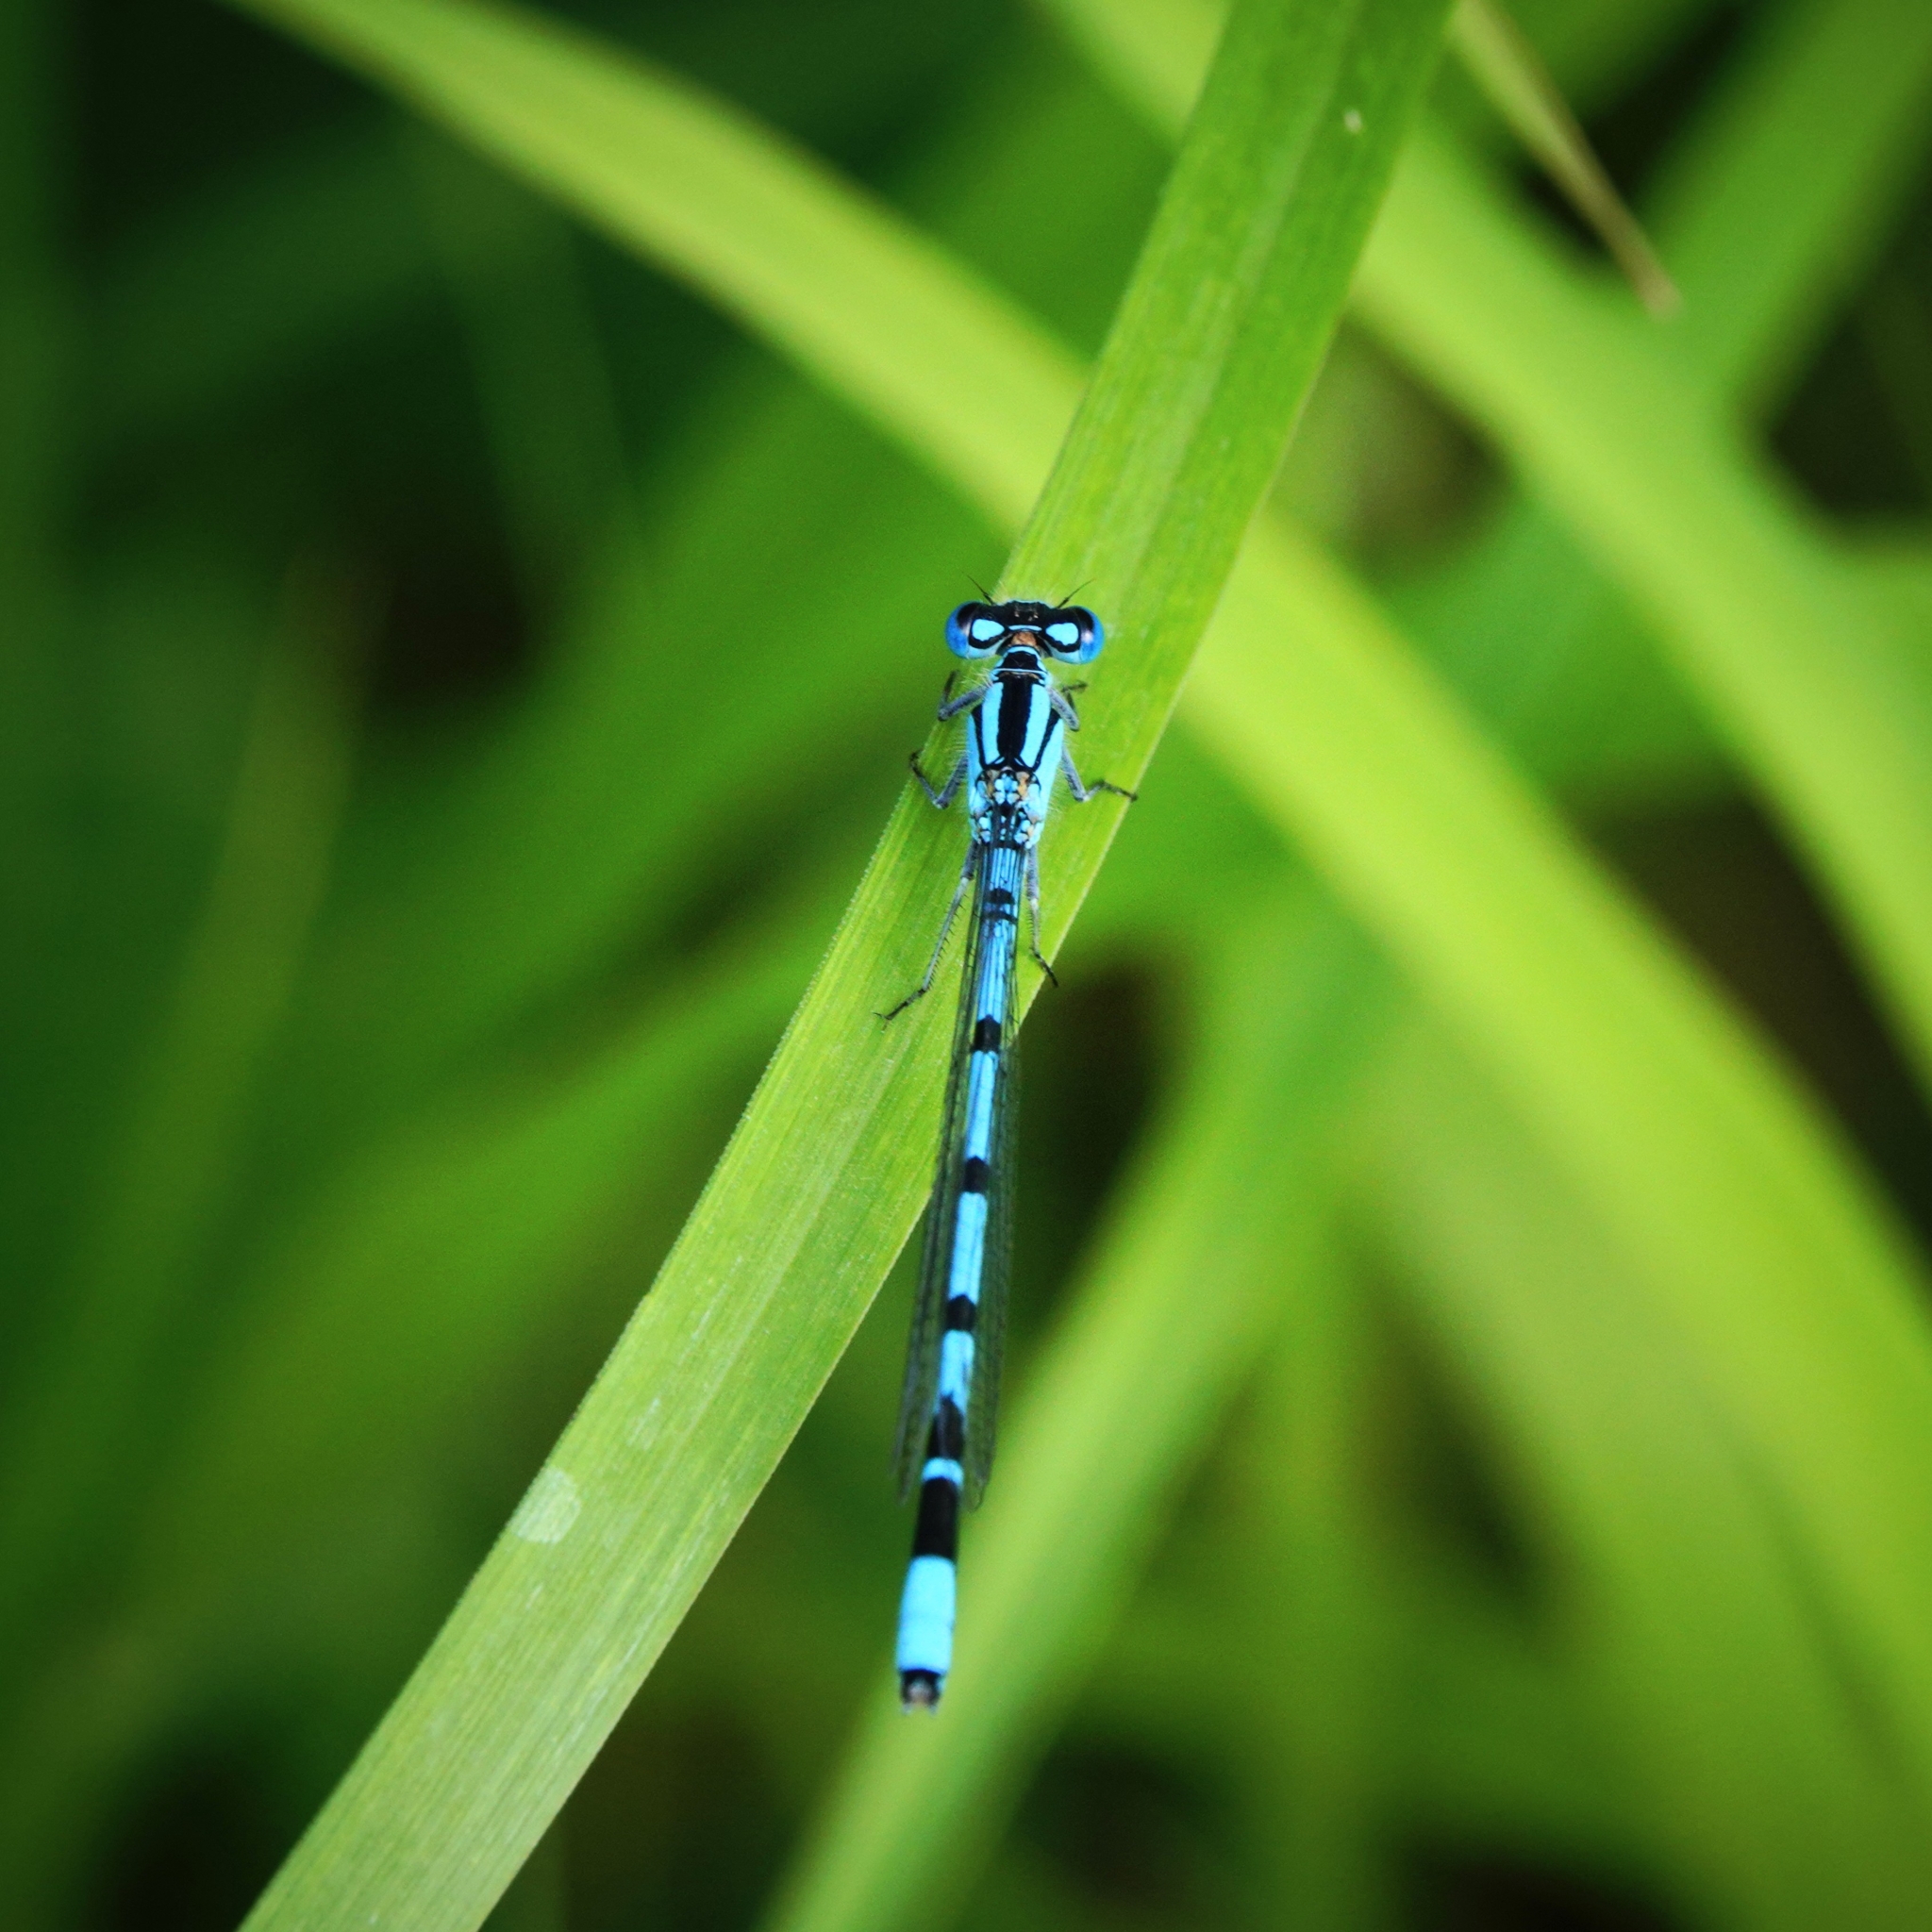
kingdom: Animalia
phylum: Arthropoda
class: Insecta
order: Odonata
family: Coenagrionidae
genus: Enallagma
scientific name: Enallagma cyathigerum
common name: Common blue damselfly
